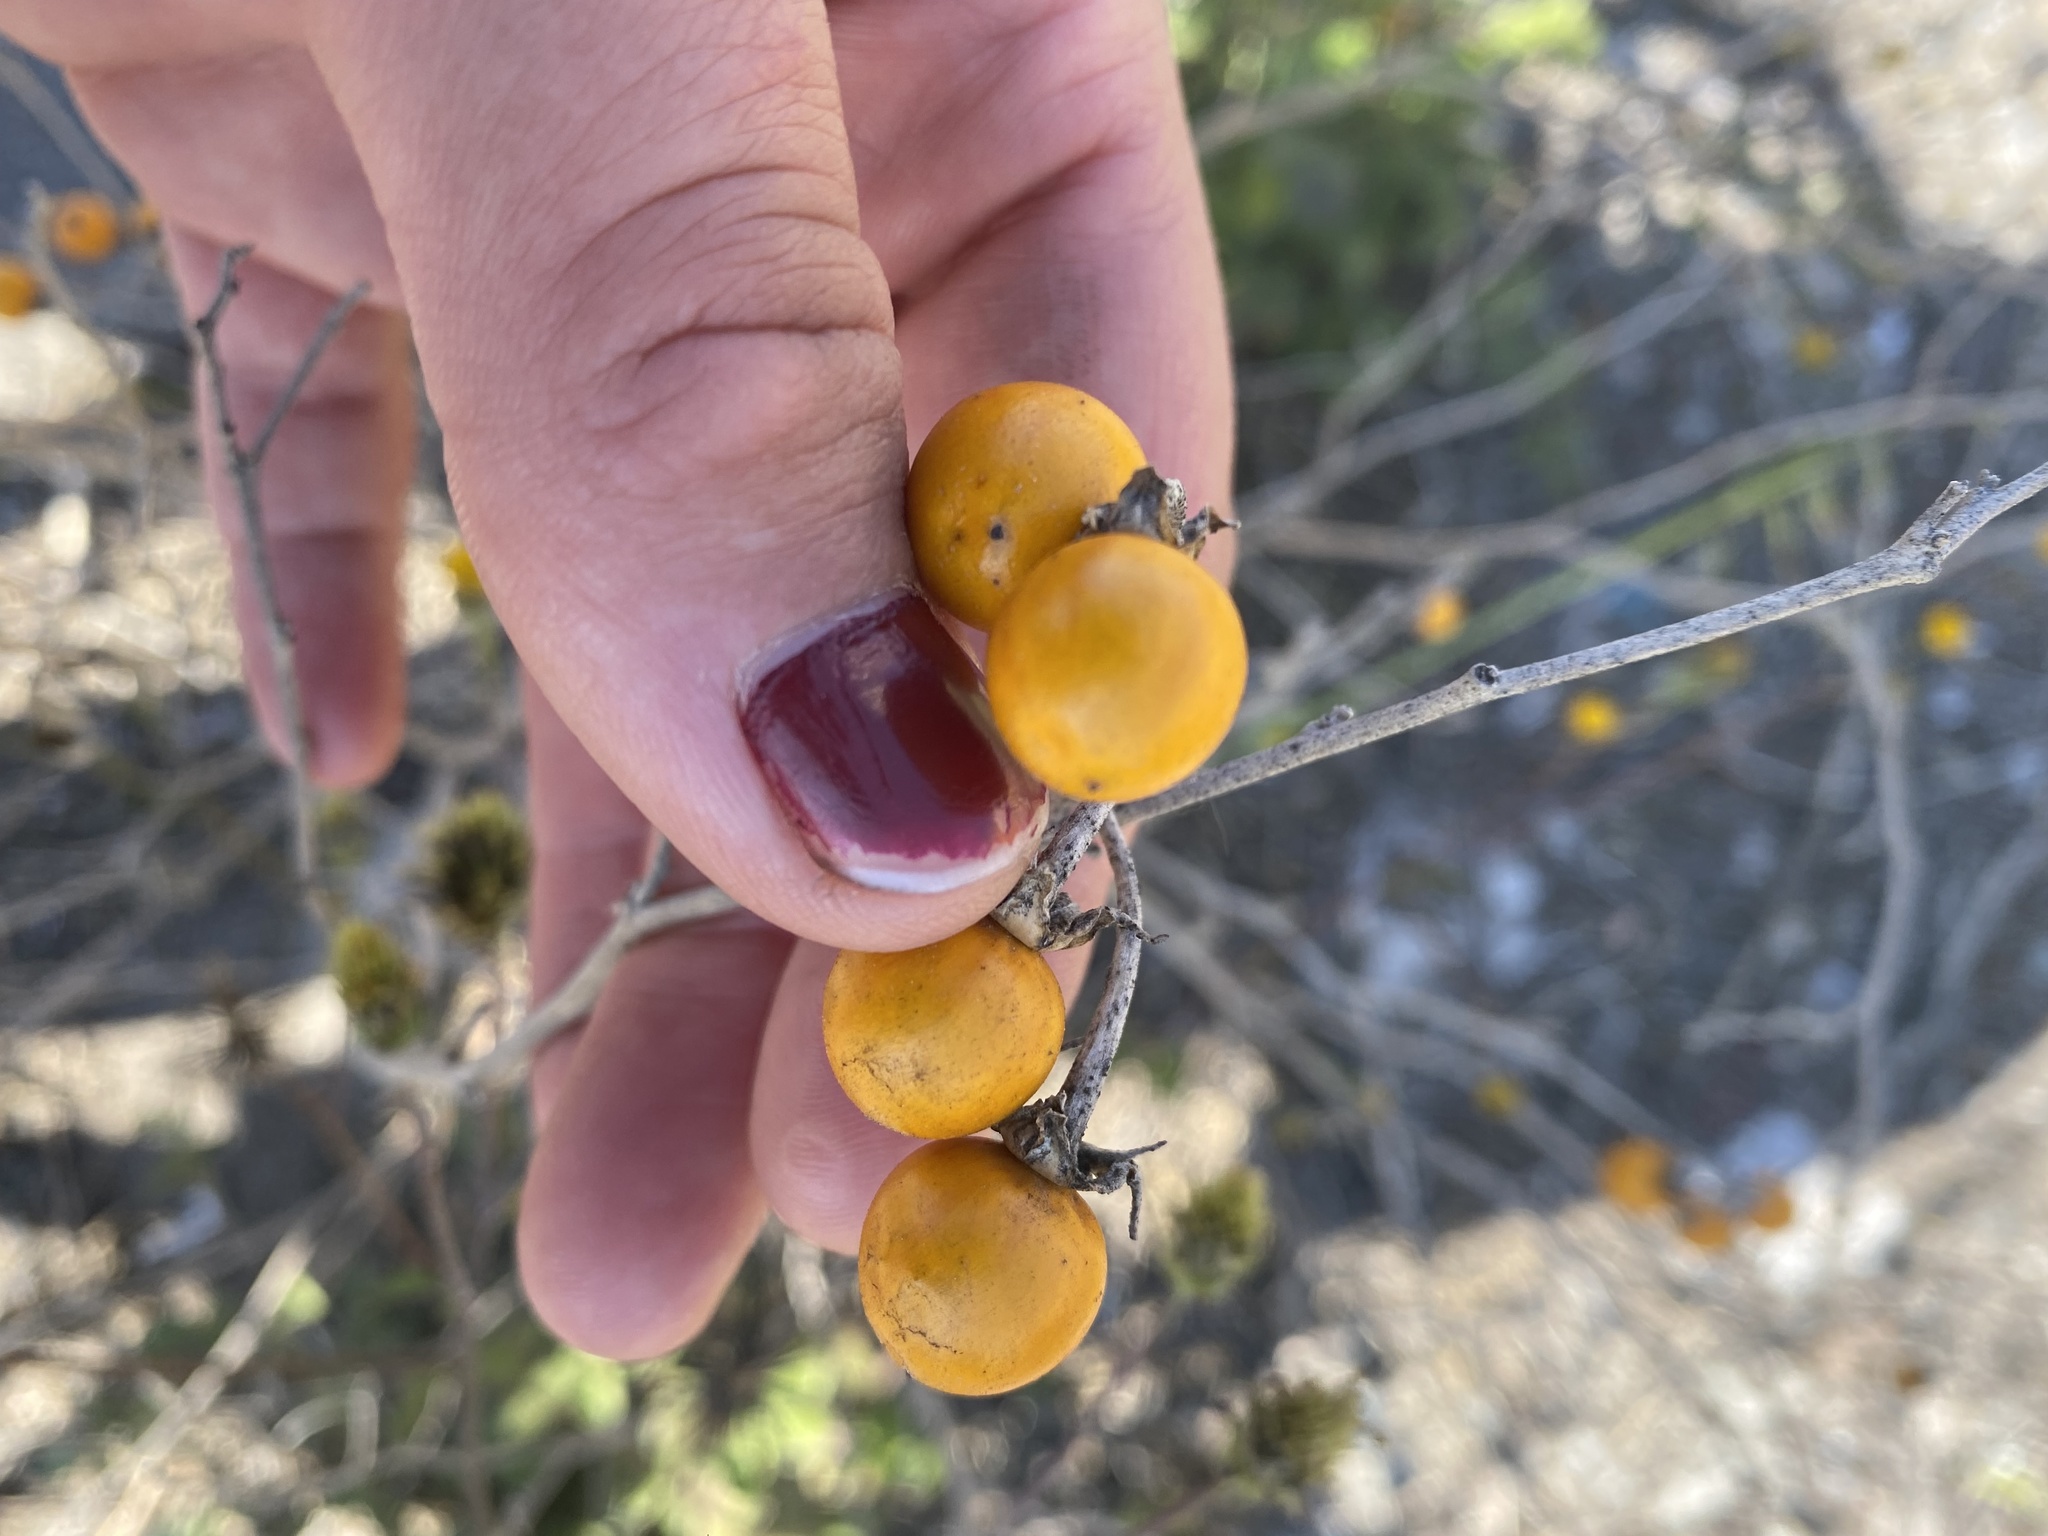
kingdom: Plantae
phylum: Tracheophyta
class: Magnoliopsida
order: Solanales
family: Solanaceae
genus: Solanum
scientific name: Solanum elaeagnifolium
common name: Silverleaf nightshade
